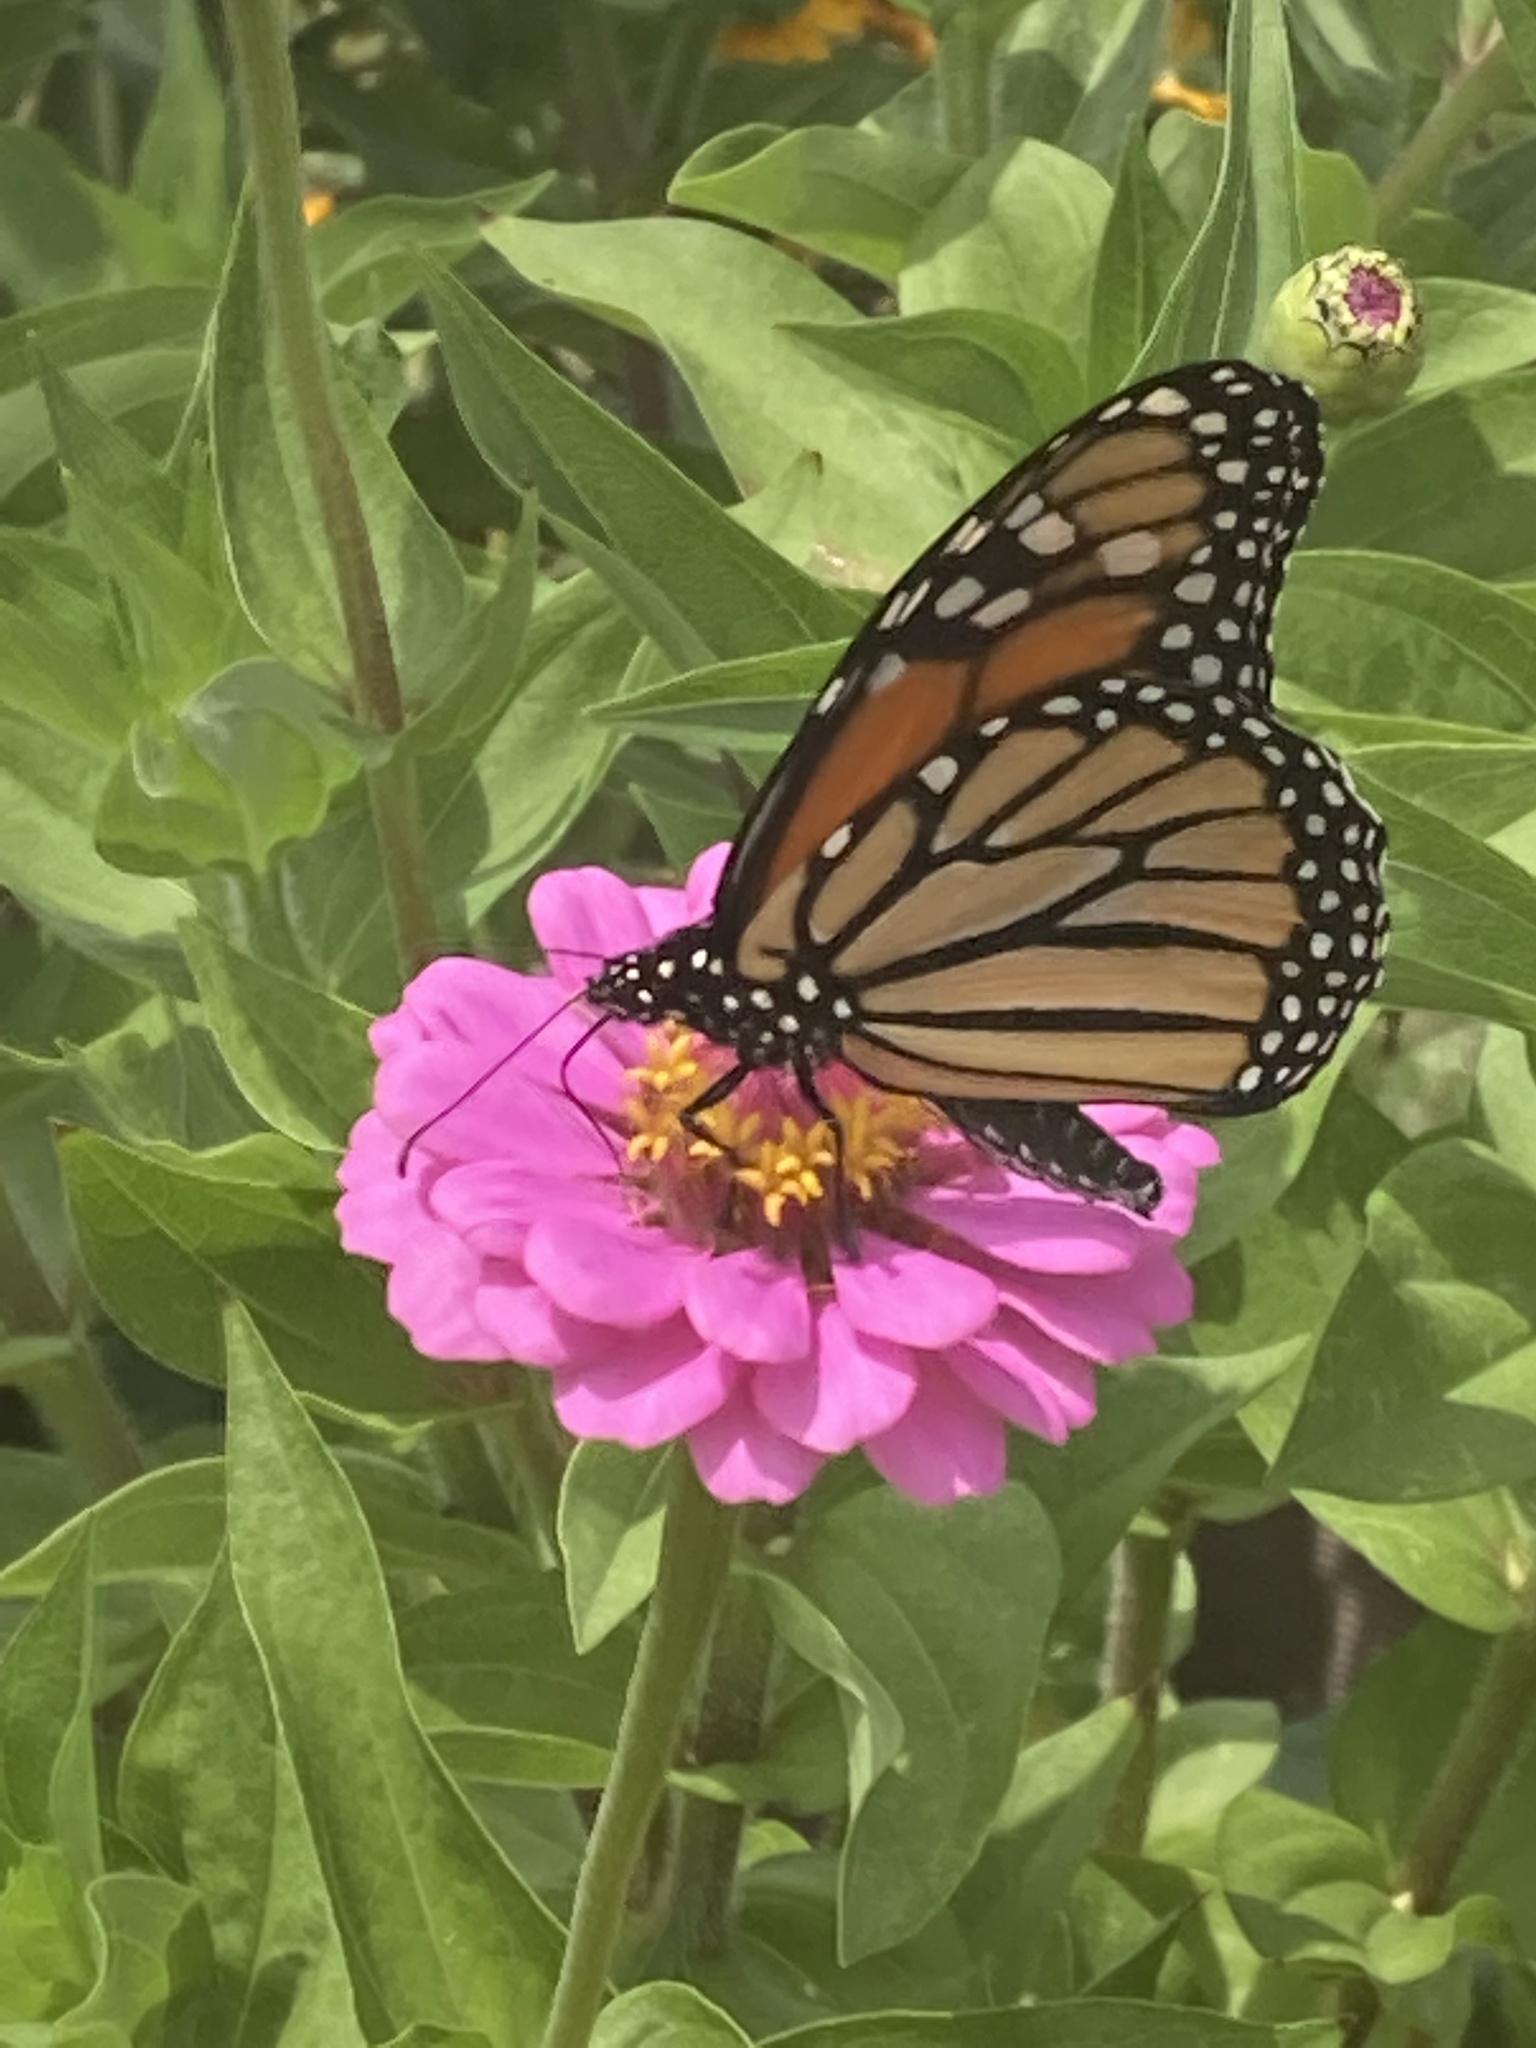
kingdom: Animalia
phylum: Arthropoda
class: Insecta
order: Lepidoptera
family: Nymphalidae
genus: Danaus
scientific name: Danaus plexippus
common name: Monarch
